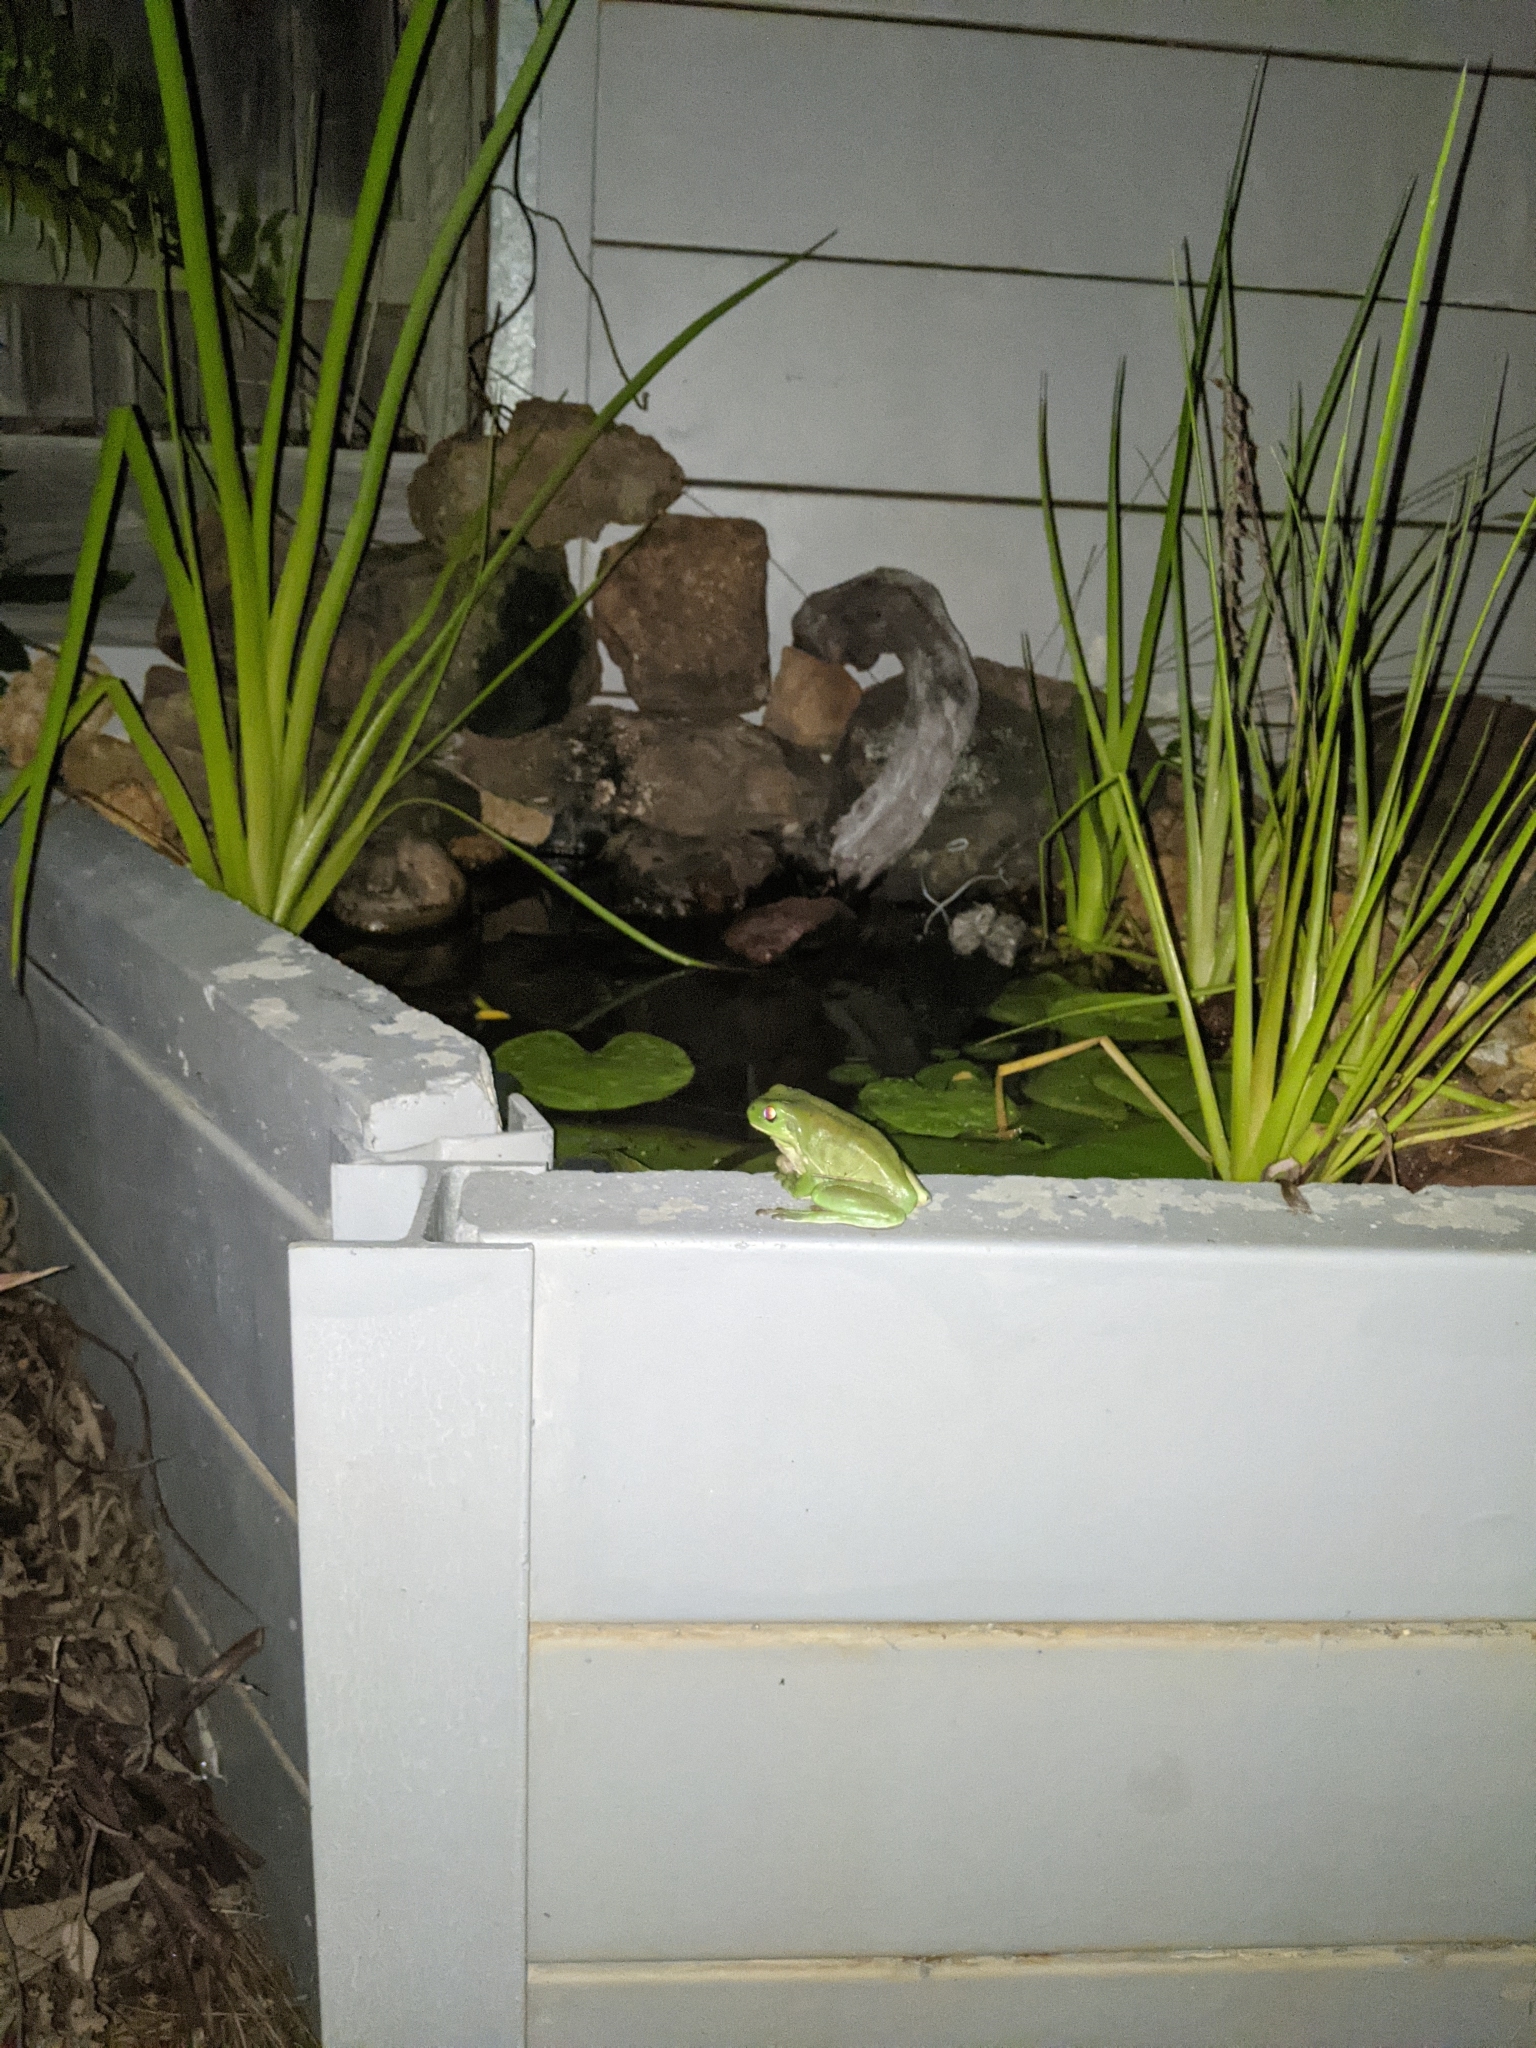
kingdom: Animalia
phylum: Chordata
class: Amphibia
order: Anura
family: Pelodryadidae
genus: Ranoidea
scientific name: Ranoidea caerulea
